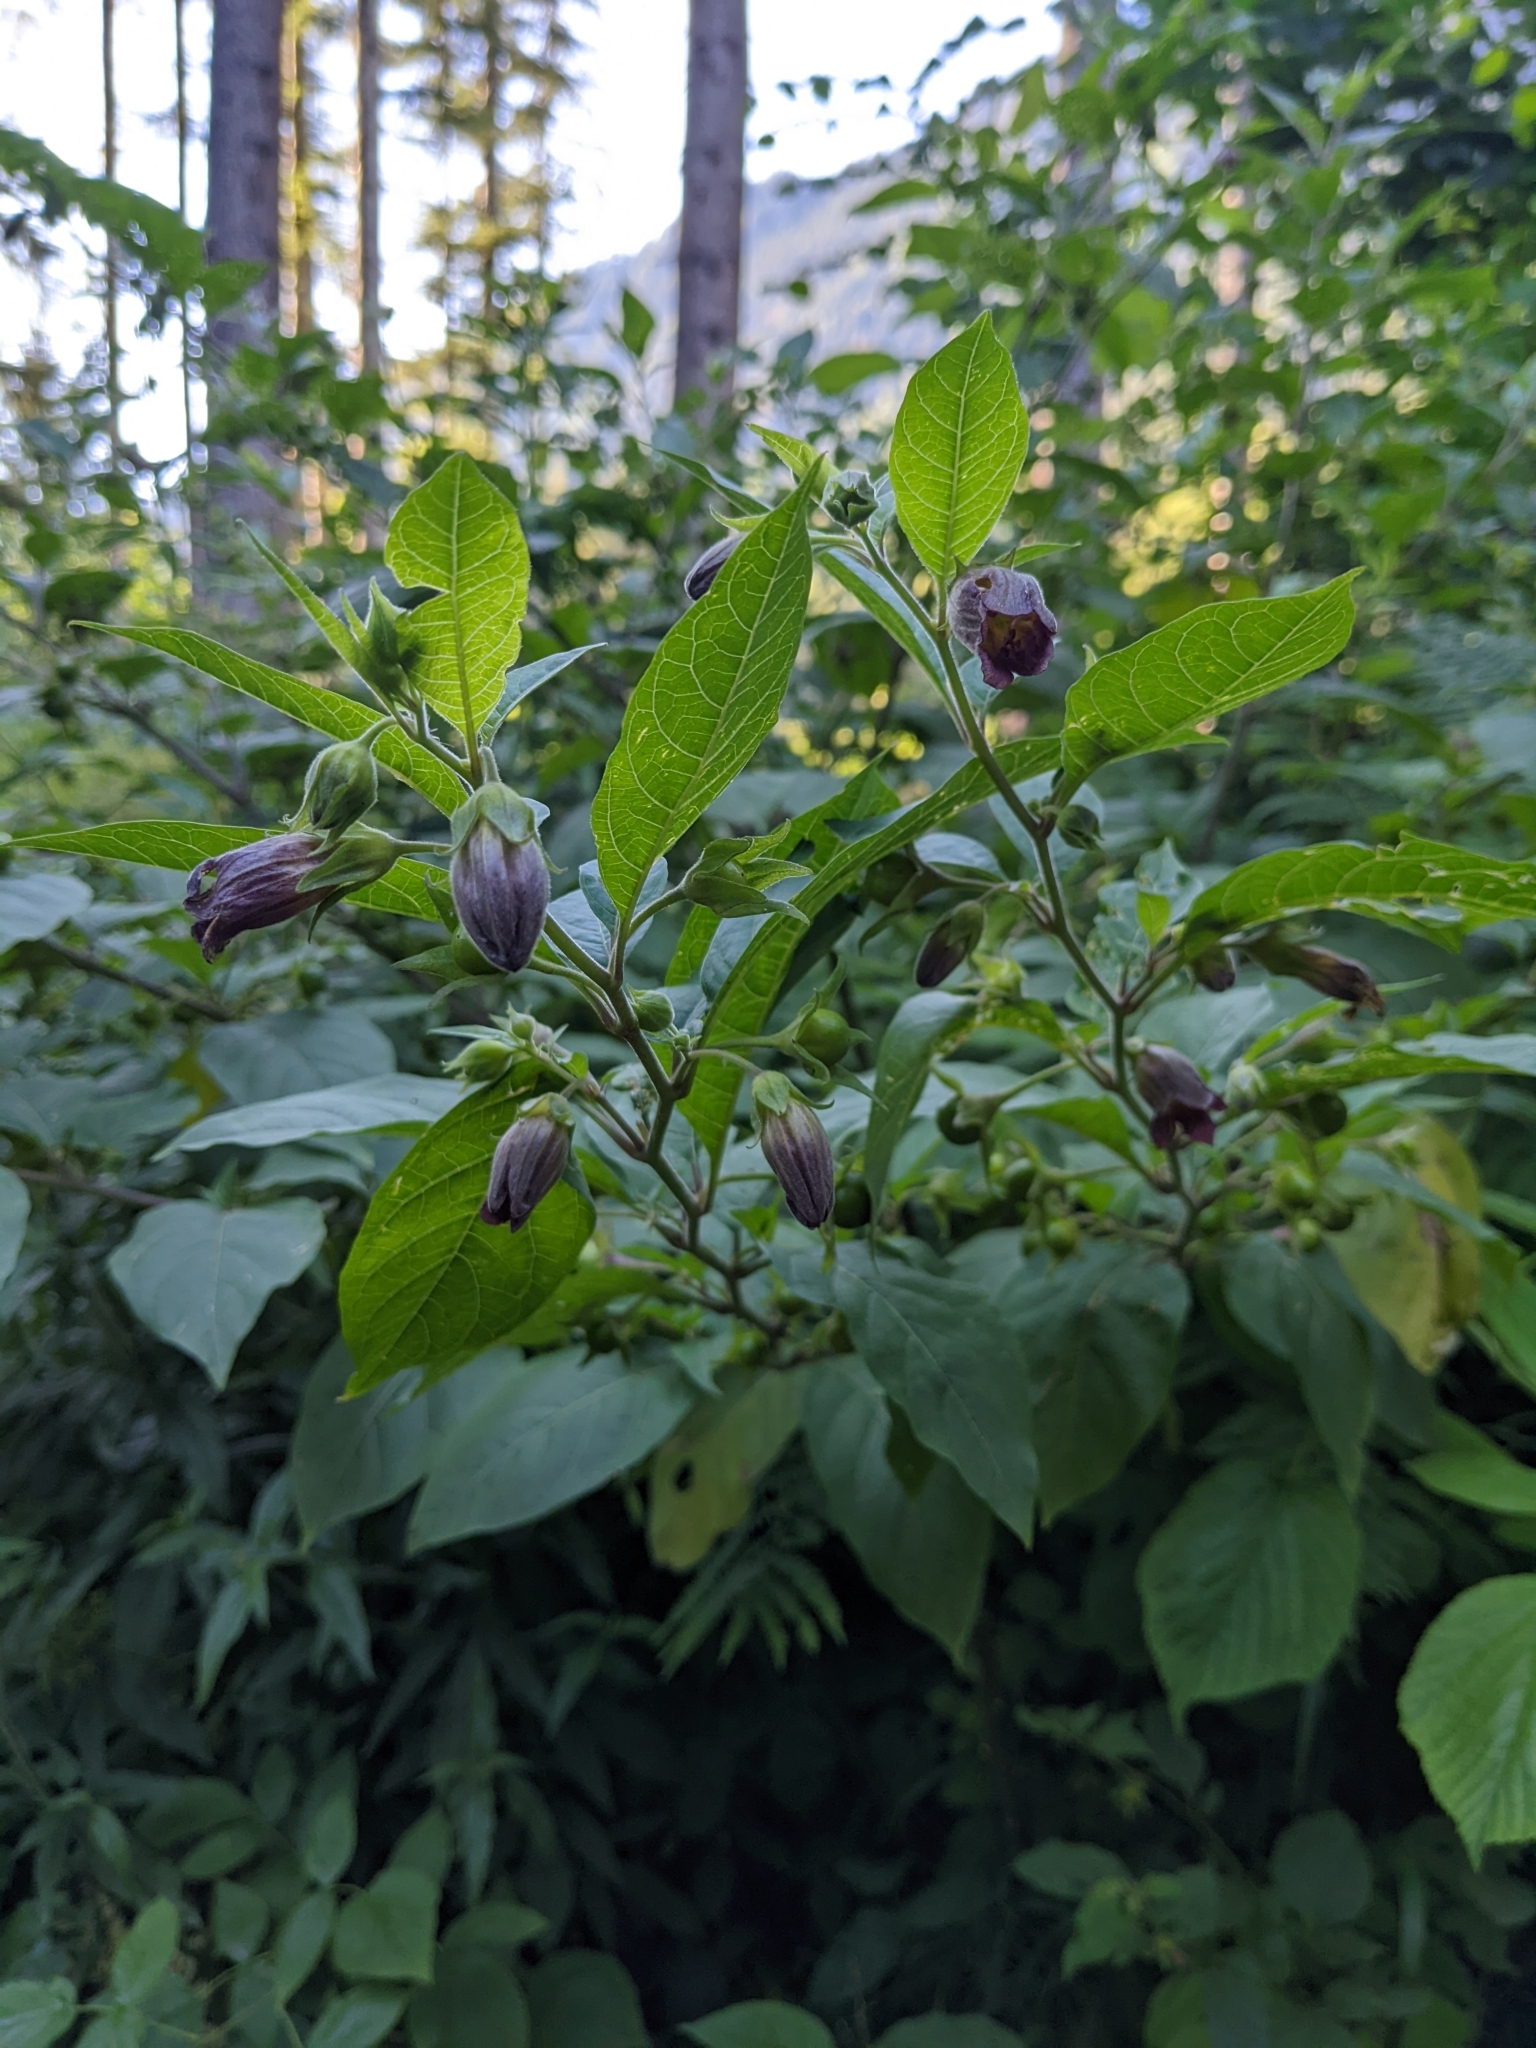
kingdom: Plantae
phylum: Tracheophyta
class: Magnoliopsida
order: Solanales
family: Solanaceae
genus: Atropa
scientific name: Atropa belladonna
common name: Deadly nightshade
